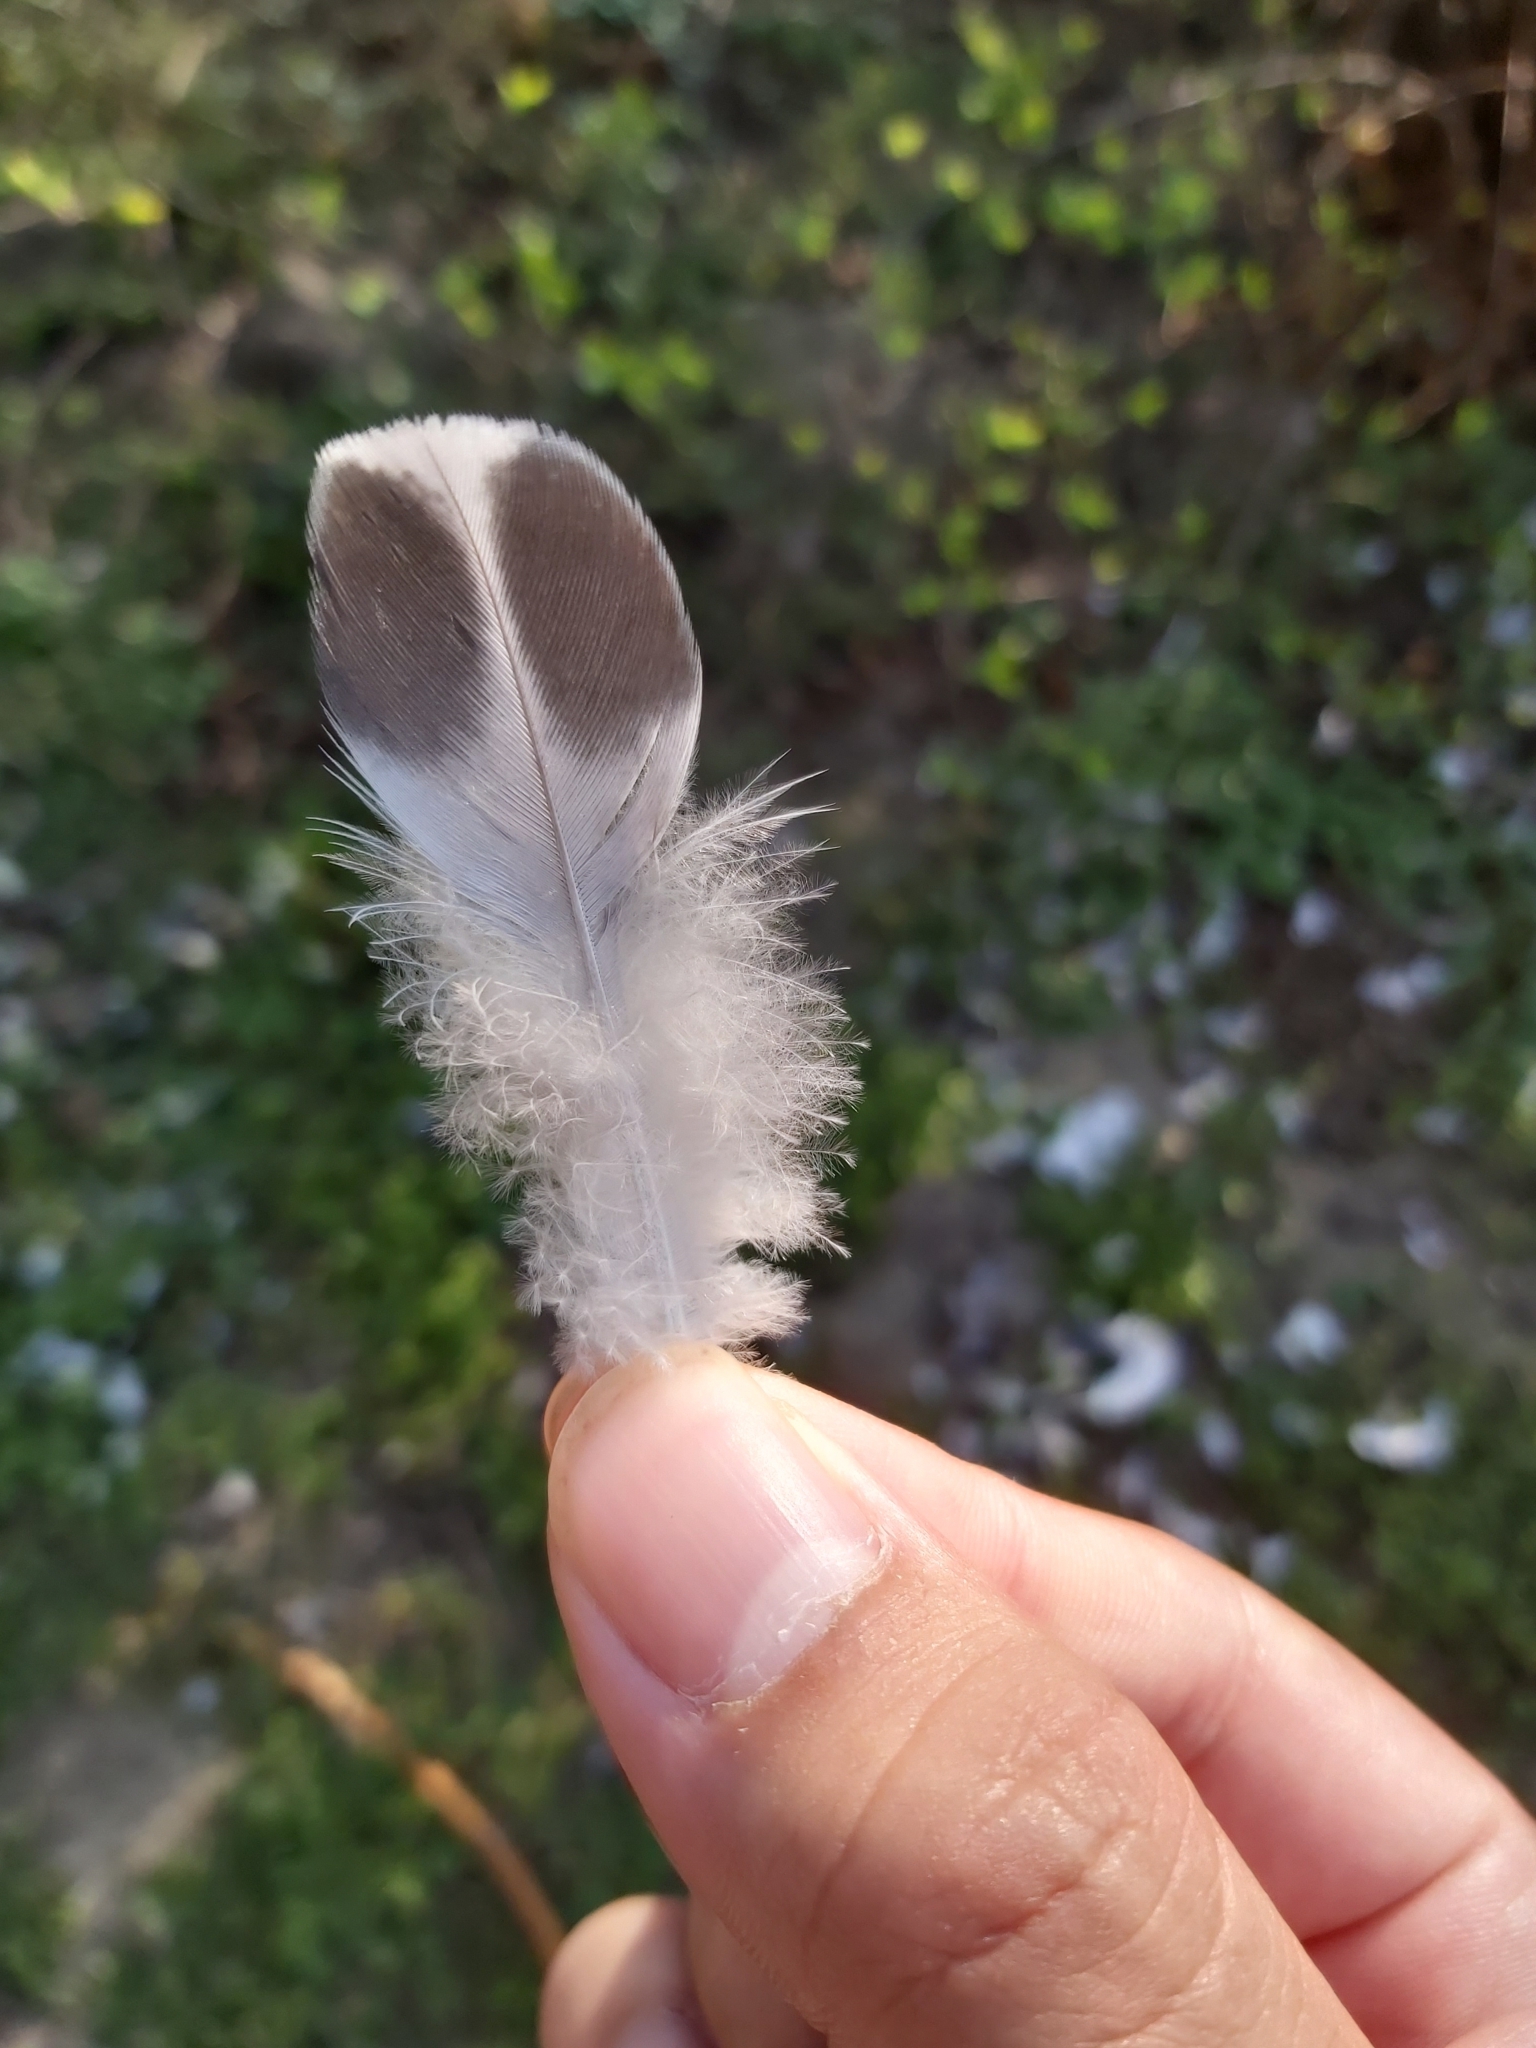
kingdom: Animalia
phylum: Chordata
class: Aves
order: Columbiformes
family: Columbidae
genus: Columba
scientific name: Columba livia
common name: Rock pigeon
